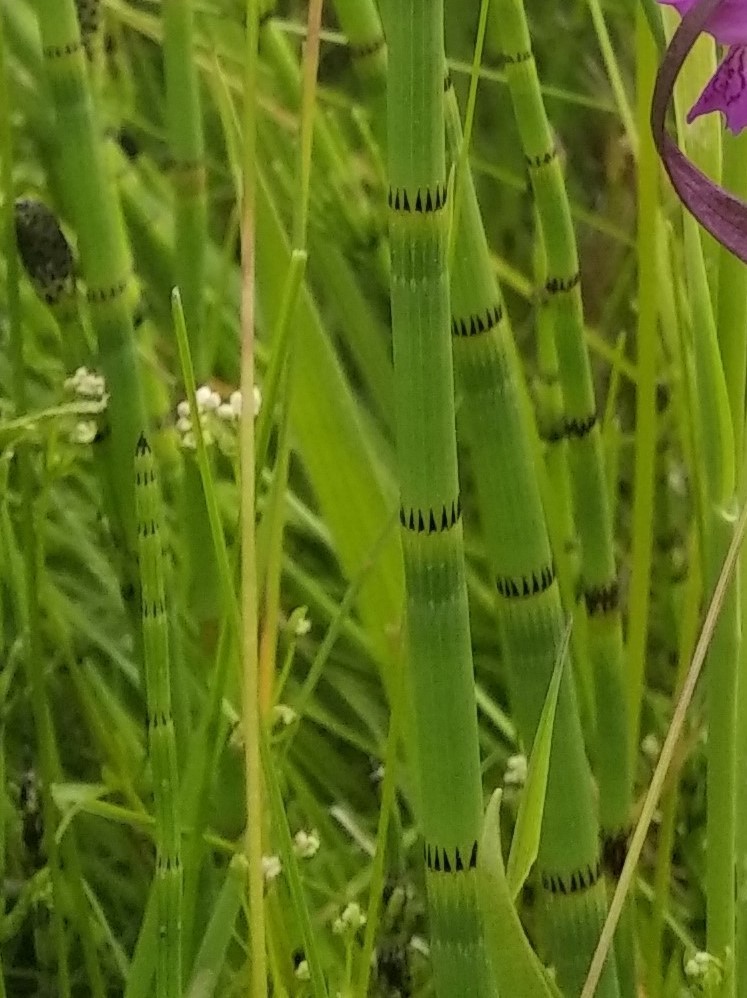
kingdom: Plantae
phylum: Tracheophyta
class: Polypodiopsida
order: Equisetales
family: Equisetaceae
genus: Equisetum
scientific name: Equisetum fluviatile
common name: Water horsetail
